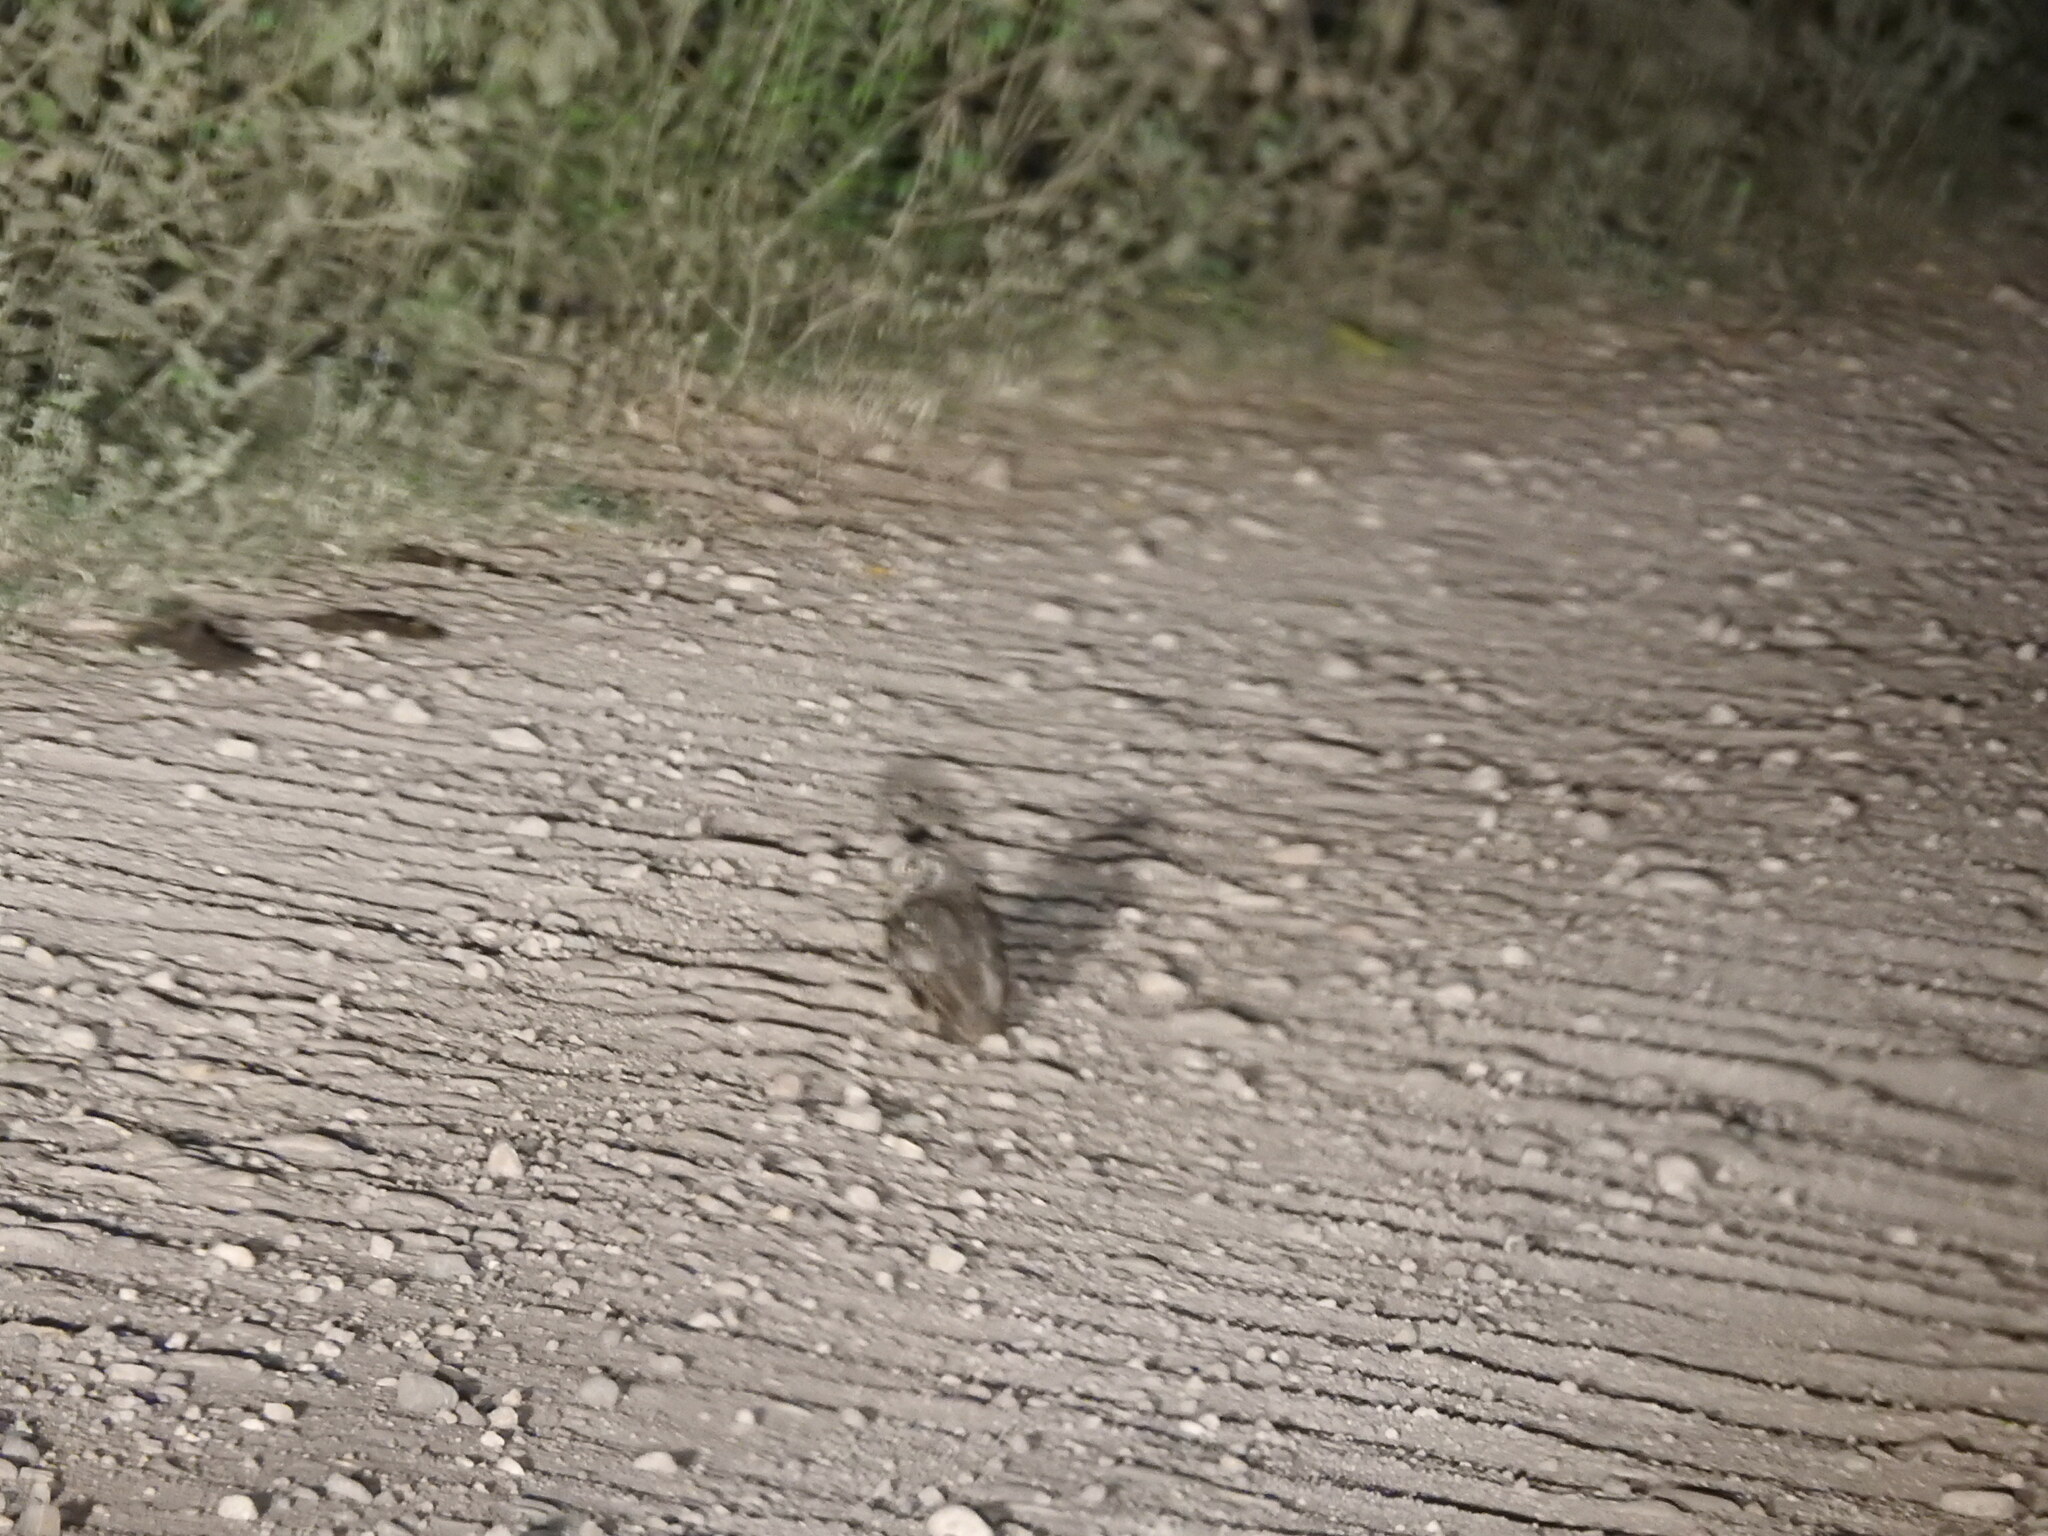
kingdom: Animalia
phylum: Chordata
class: Aves
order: Strigiformes
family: Strigidae
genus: Megascops
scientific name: Megascops choliba
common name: Tropical screech-owl
